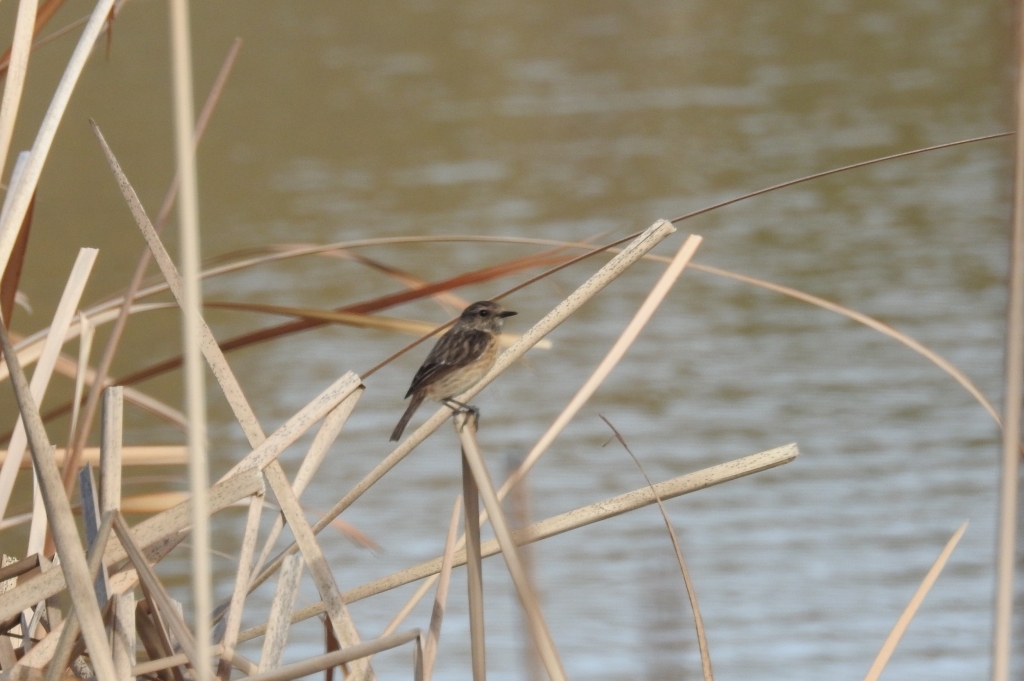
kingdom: Animalia
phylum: Chordata
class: Aves
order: Passeriformes
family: Muscicapidae
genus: Saxicola
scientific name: Saxicola rubicola
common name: European stonechat
